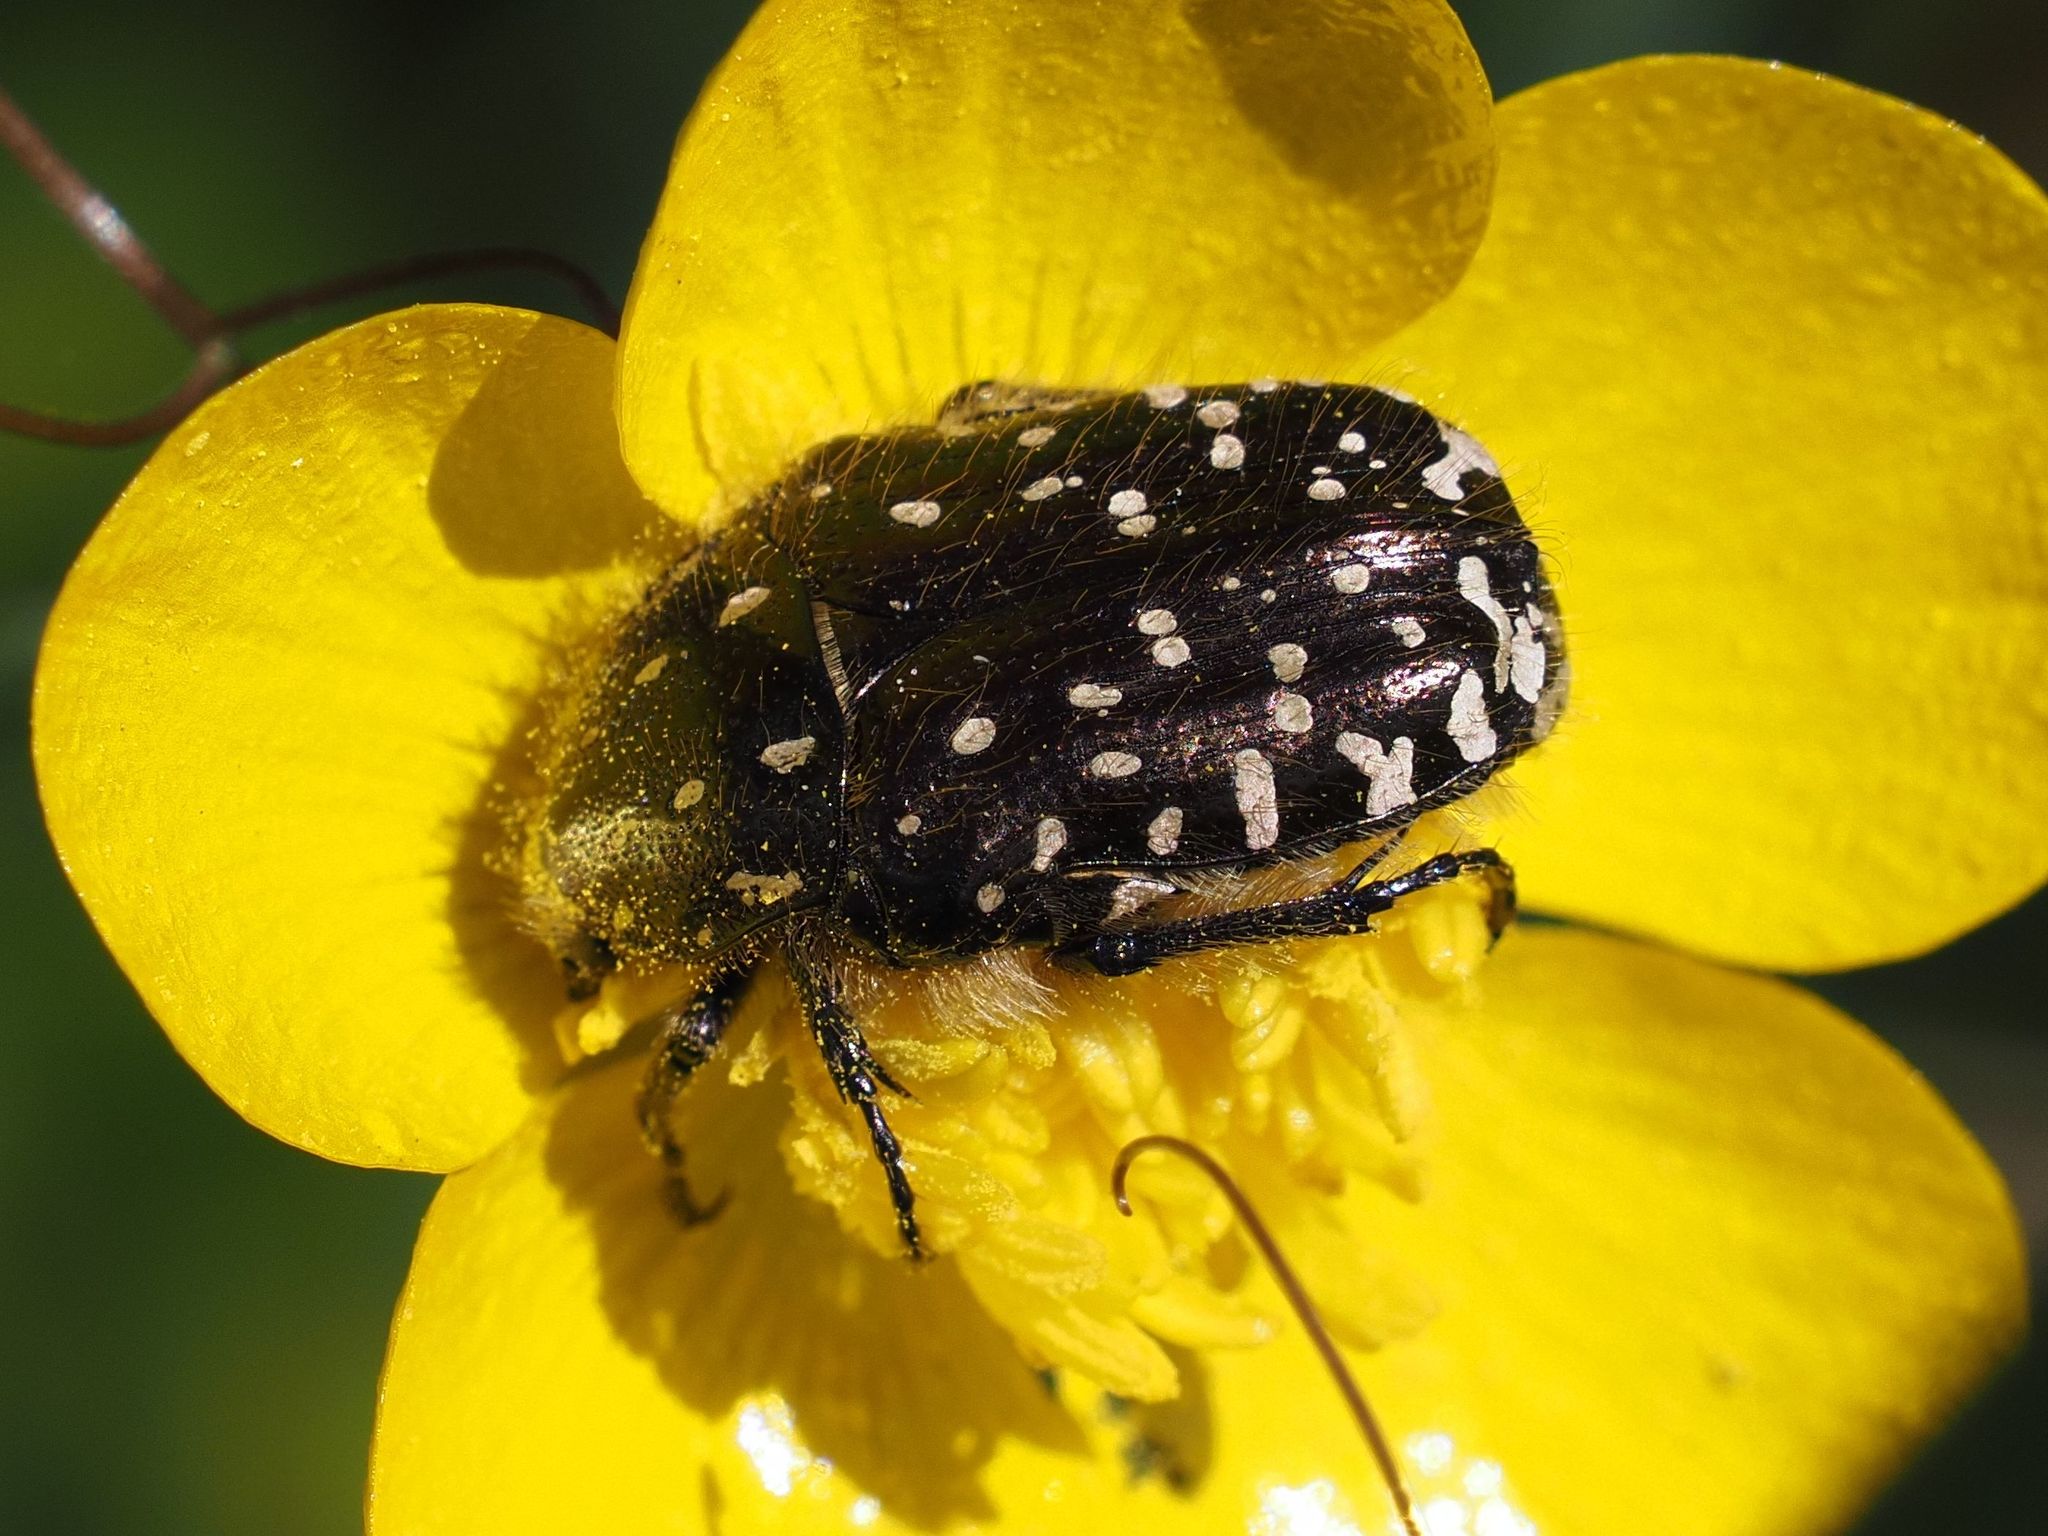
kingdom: Animalia
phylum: Arthropoda
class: Insecta
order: Coleoptera
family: Scarabaeidae
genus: Oxythyrea
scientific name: Oxythyrea funesta
